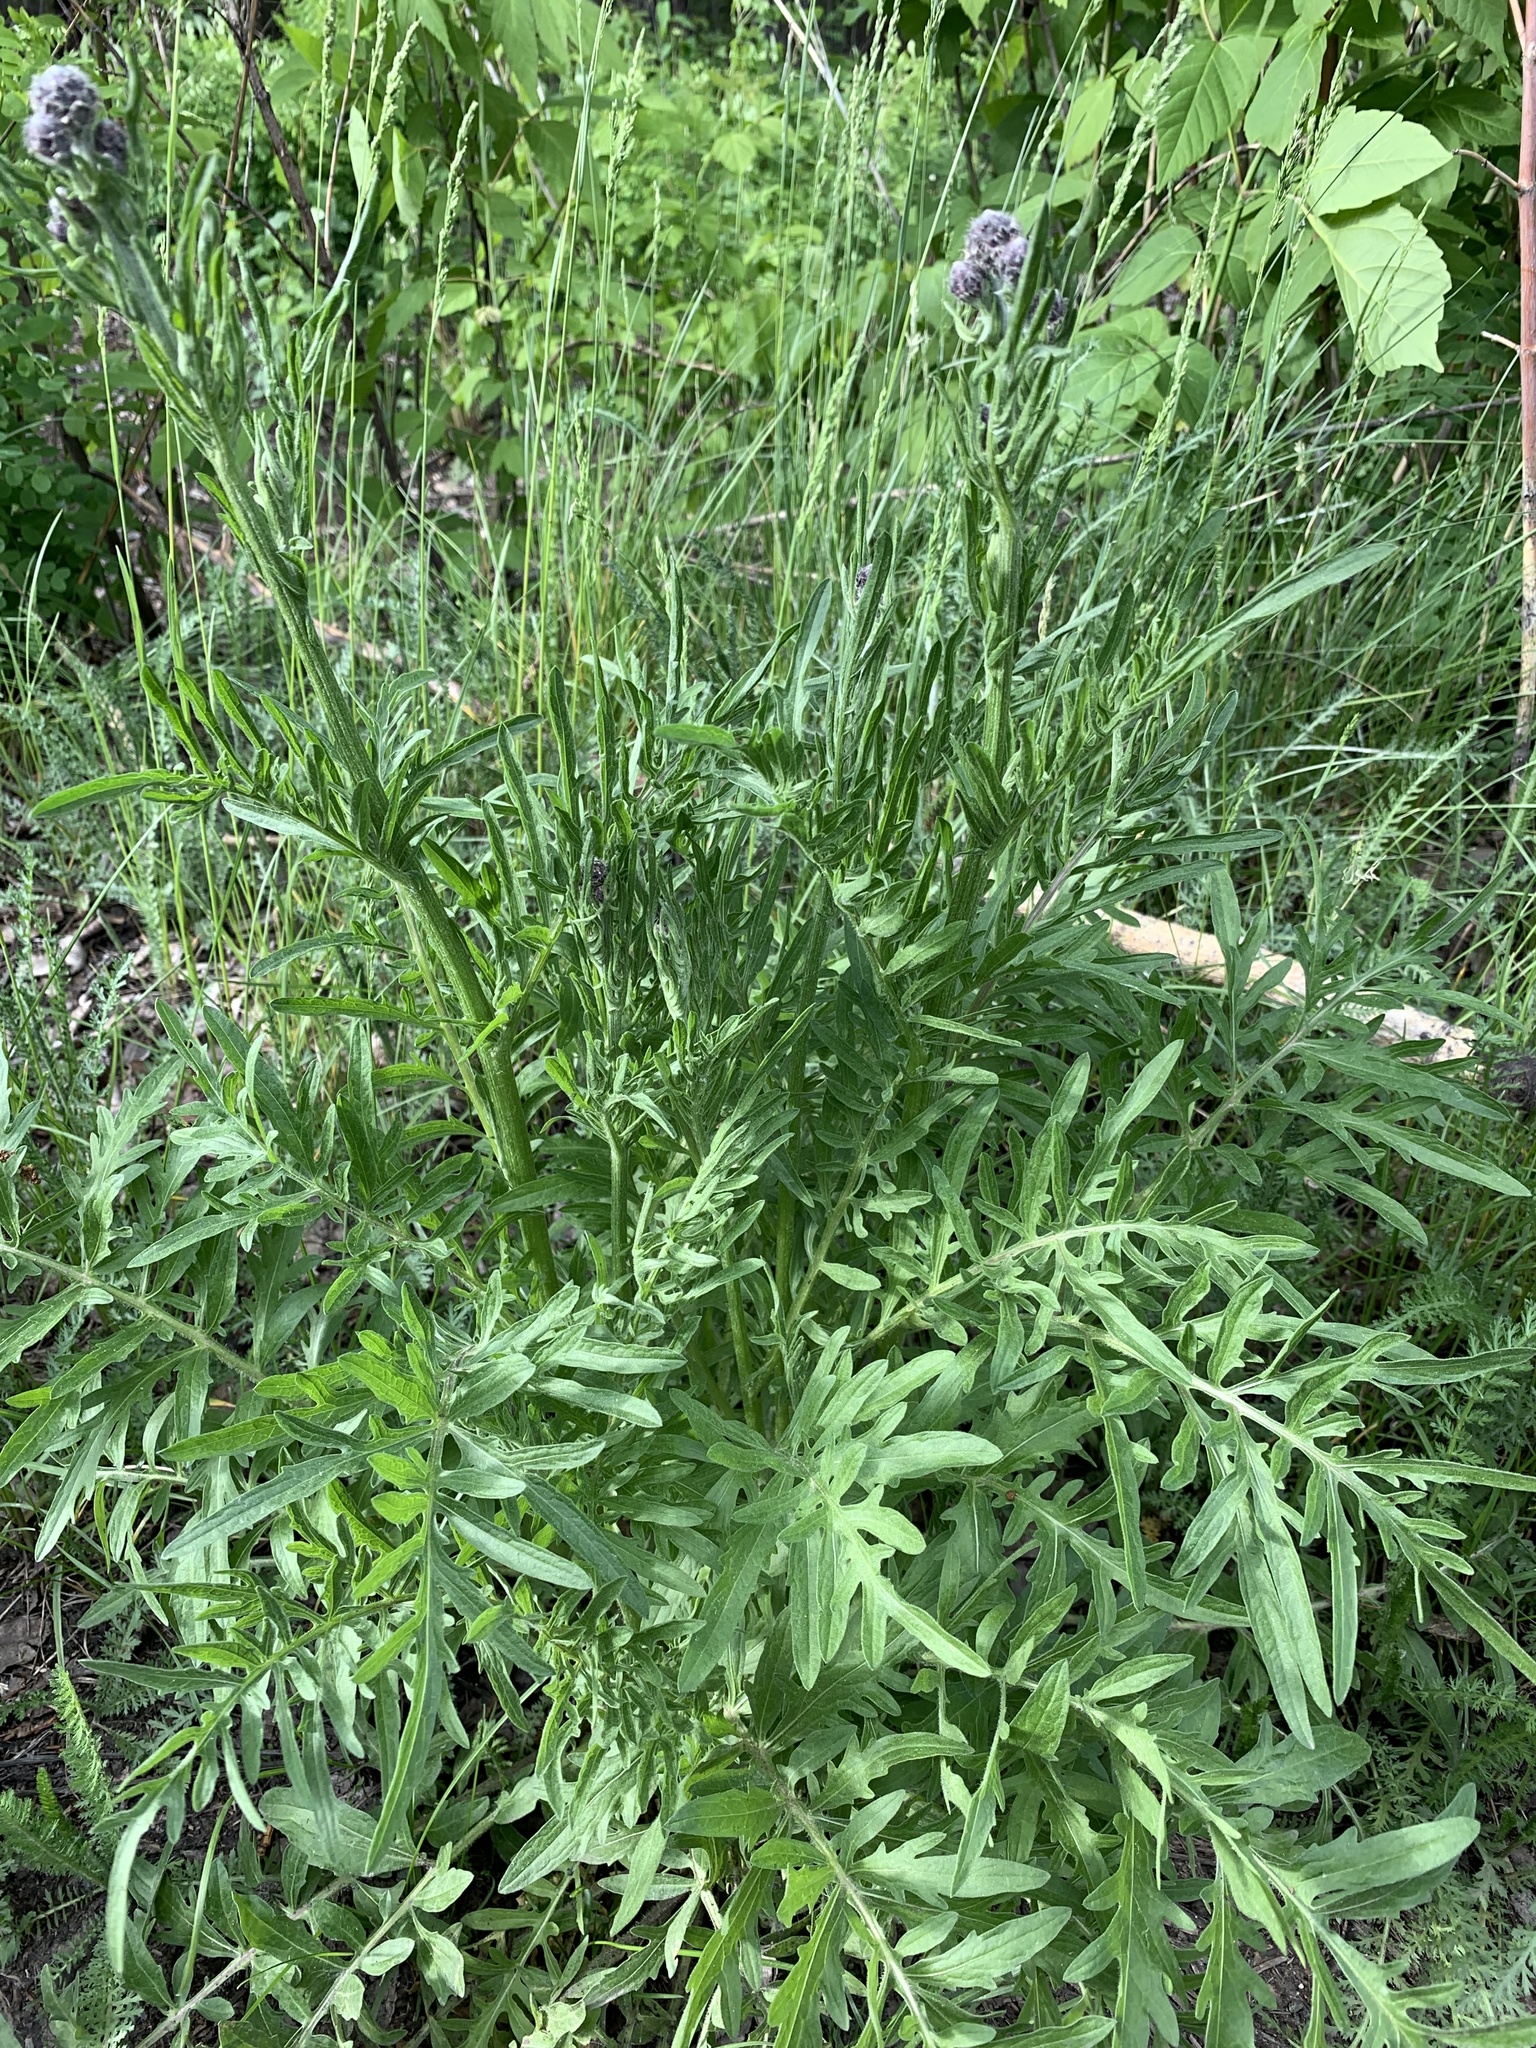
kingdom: Plantae
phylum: Tracheophyta
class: Magnoliopsida
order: Asterales
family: Asteraceae
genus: Centaurea
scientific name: Centaurea scabiosa
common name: Greater knapweed
